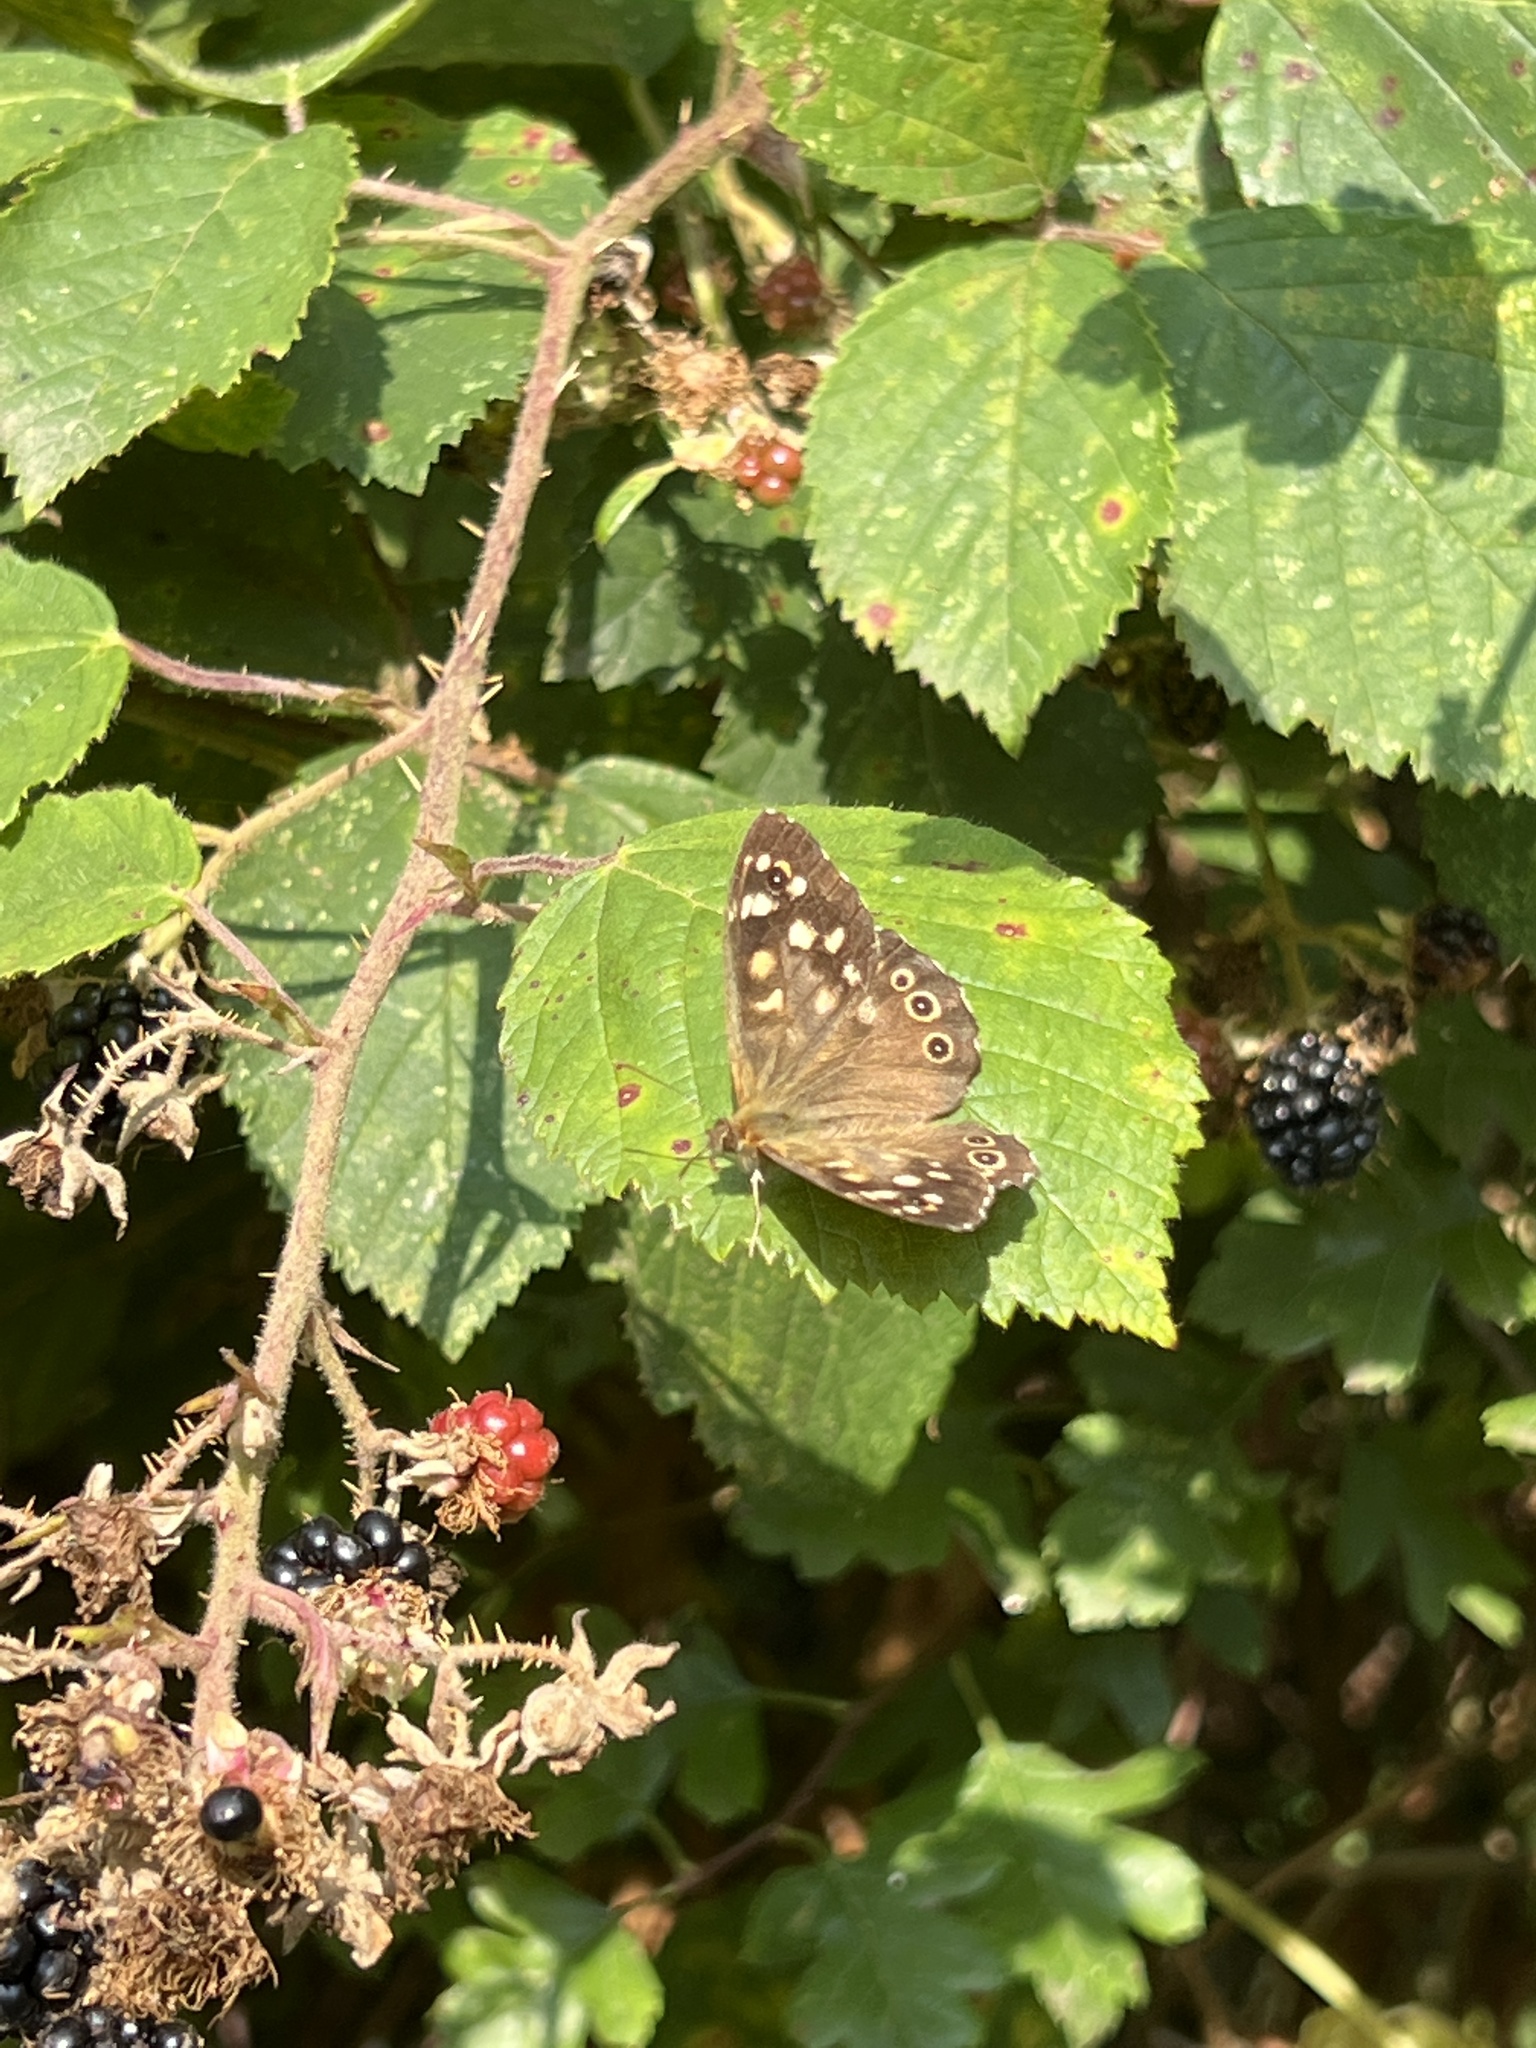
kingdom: Animalia
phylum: Arthropoda
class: Insecta
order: Lepidoptera
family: Nymphalidae
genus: Pararge
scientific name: Pararge aegeria
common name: Speckled wood
